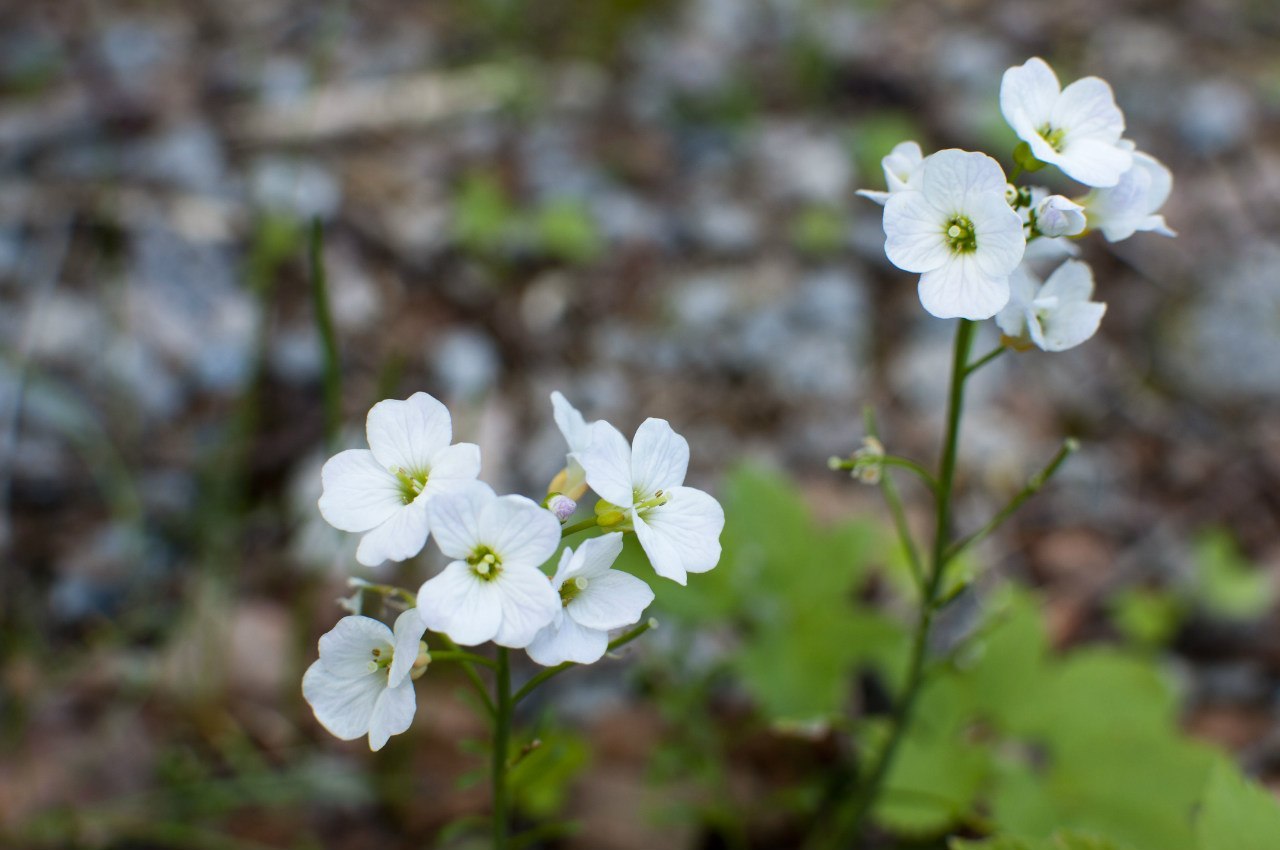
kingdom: Plantae
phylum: Tracheophyta
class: Magnoliopsida
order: Brassicales
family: Brassicaceae
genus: Cardamine
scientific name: Cardamine pratensis
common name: Cuckoo flower
